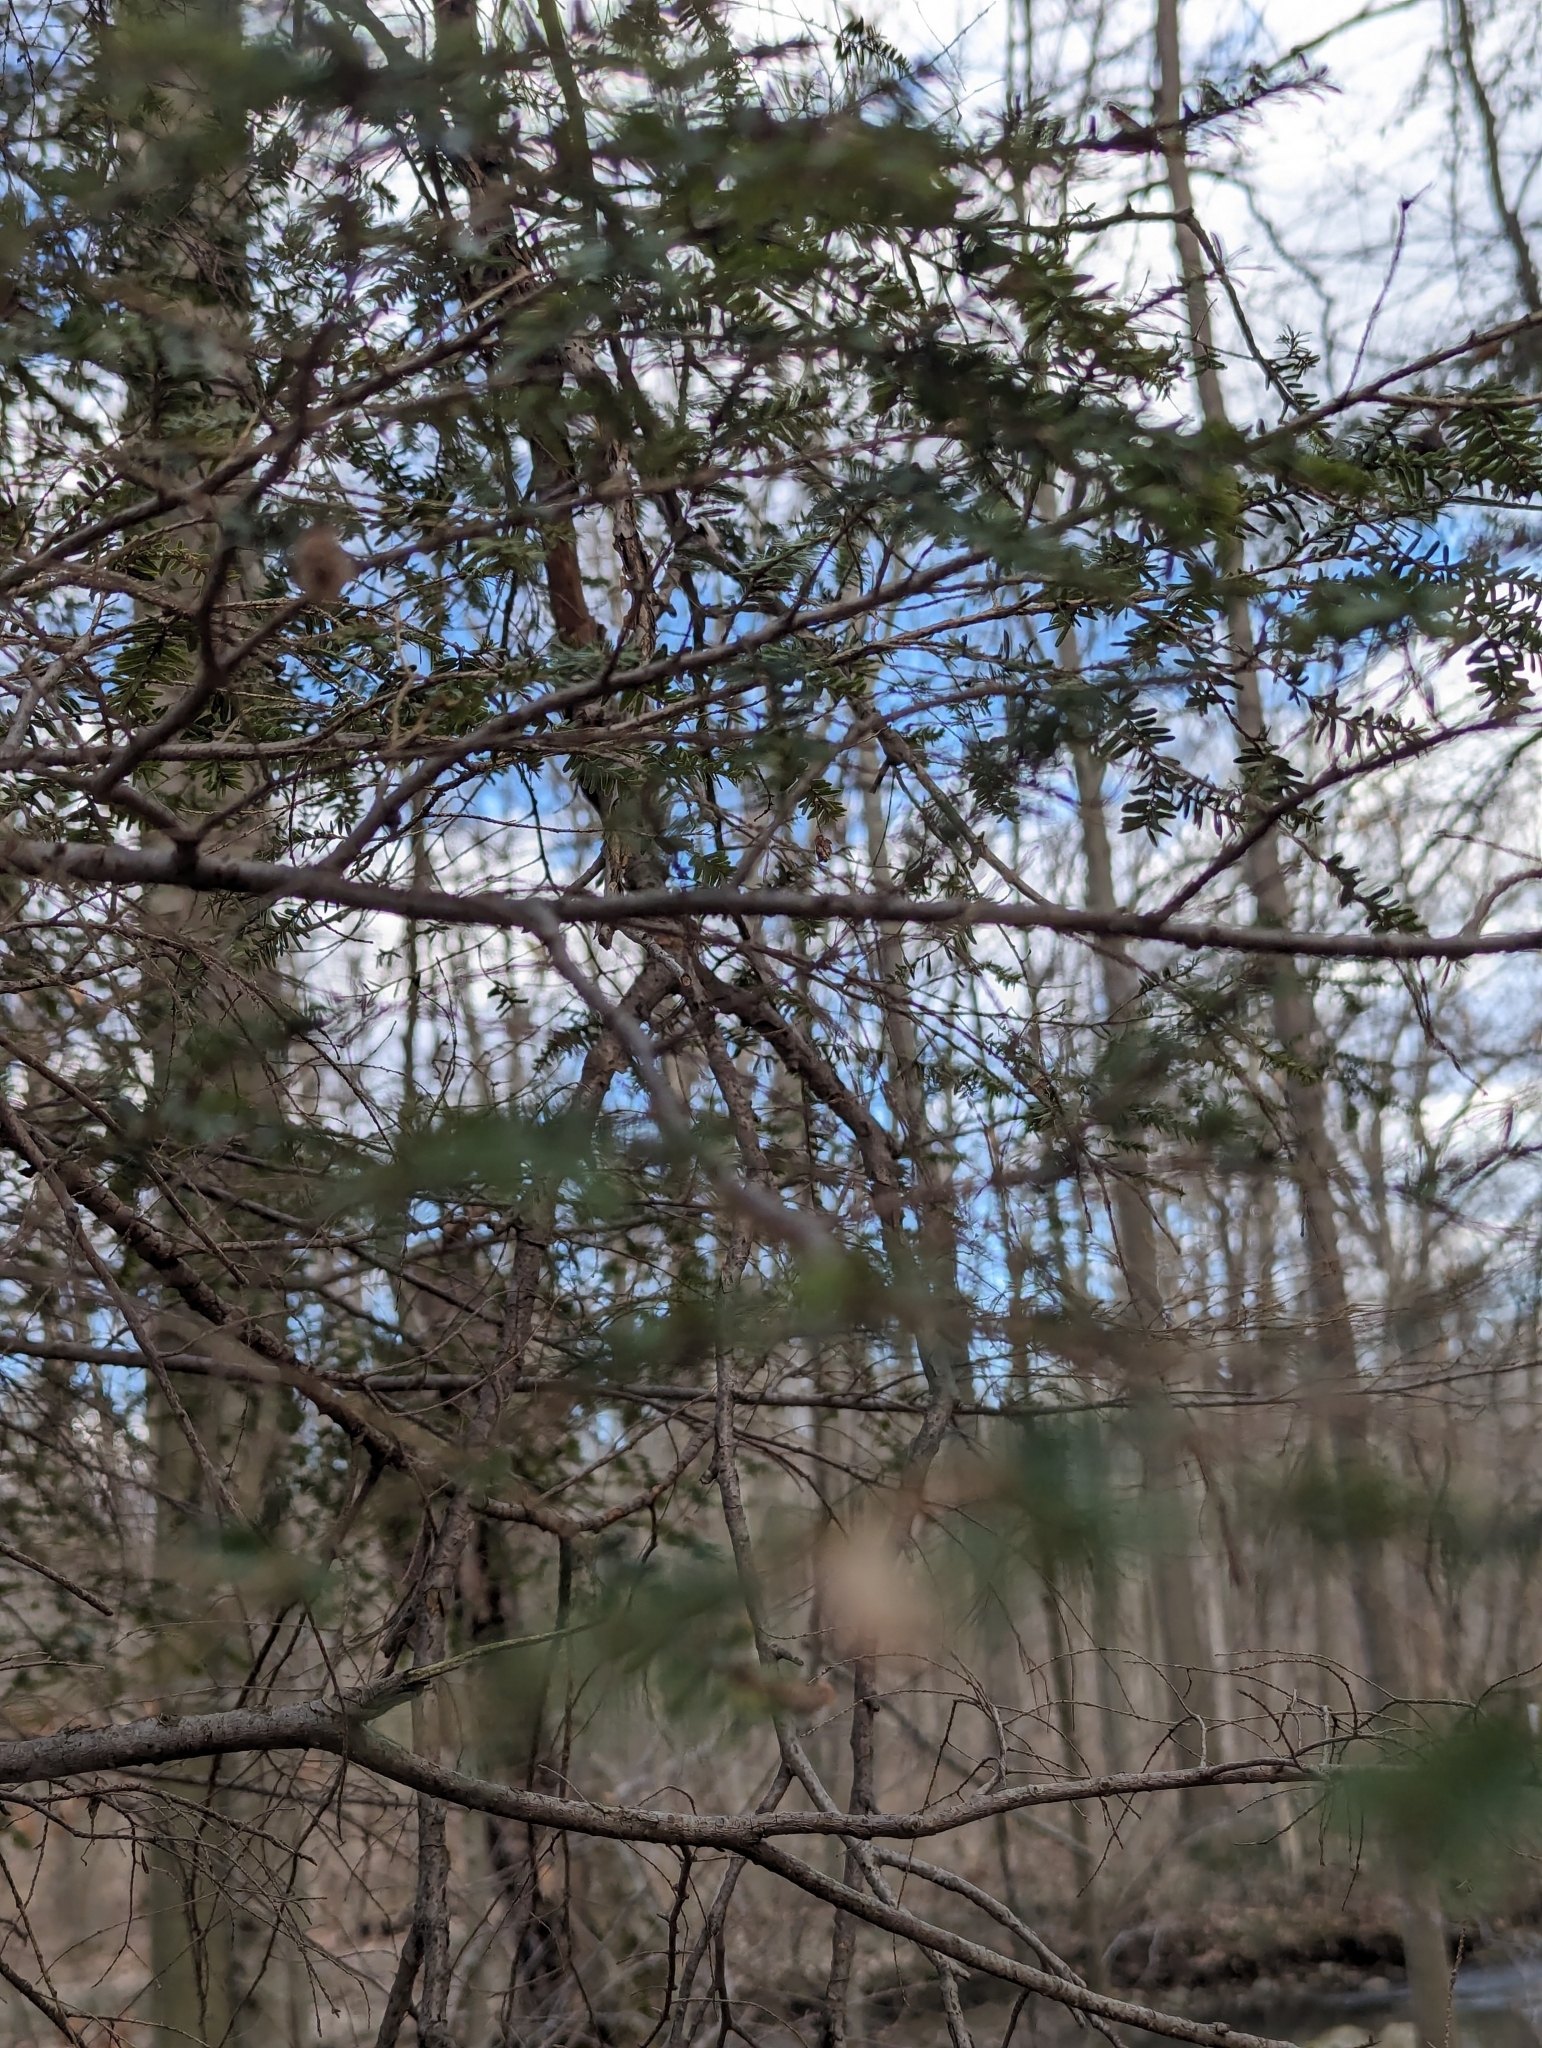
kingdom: Plantae
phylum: Tracheophyta
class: Pinopsida
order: Pinales
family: Pinaceae
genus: Tsuga
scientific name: Tsuga canadensis
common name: Eastern hemlock
